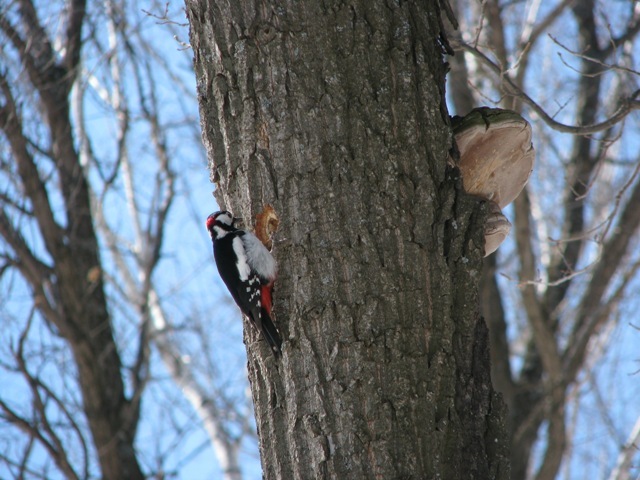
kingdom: Animalia
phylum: Chordata
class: Aves
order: Piciformes
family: Picidae
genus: Dendrocopos
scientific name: Dendrocopos major
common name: Great spotted woodpecker
